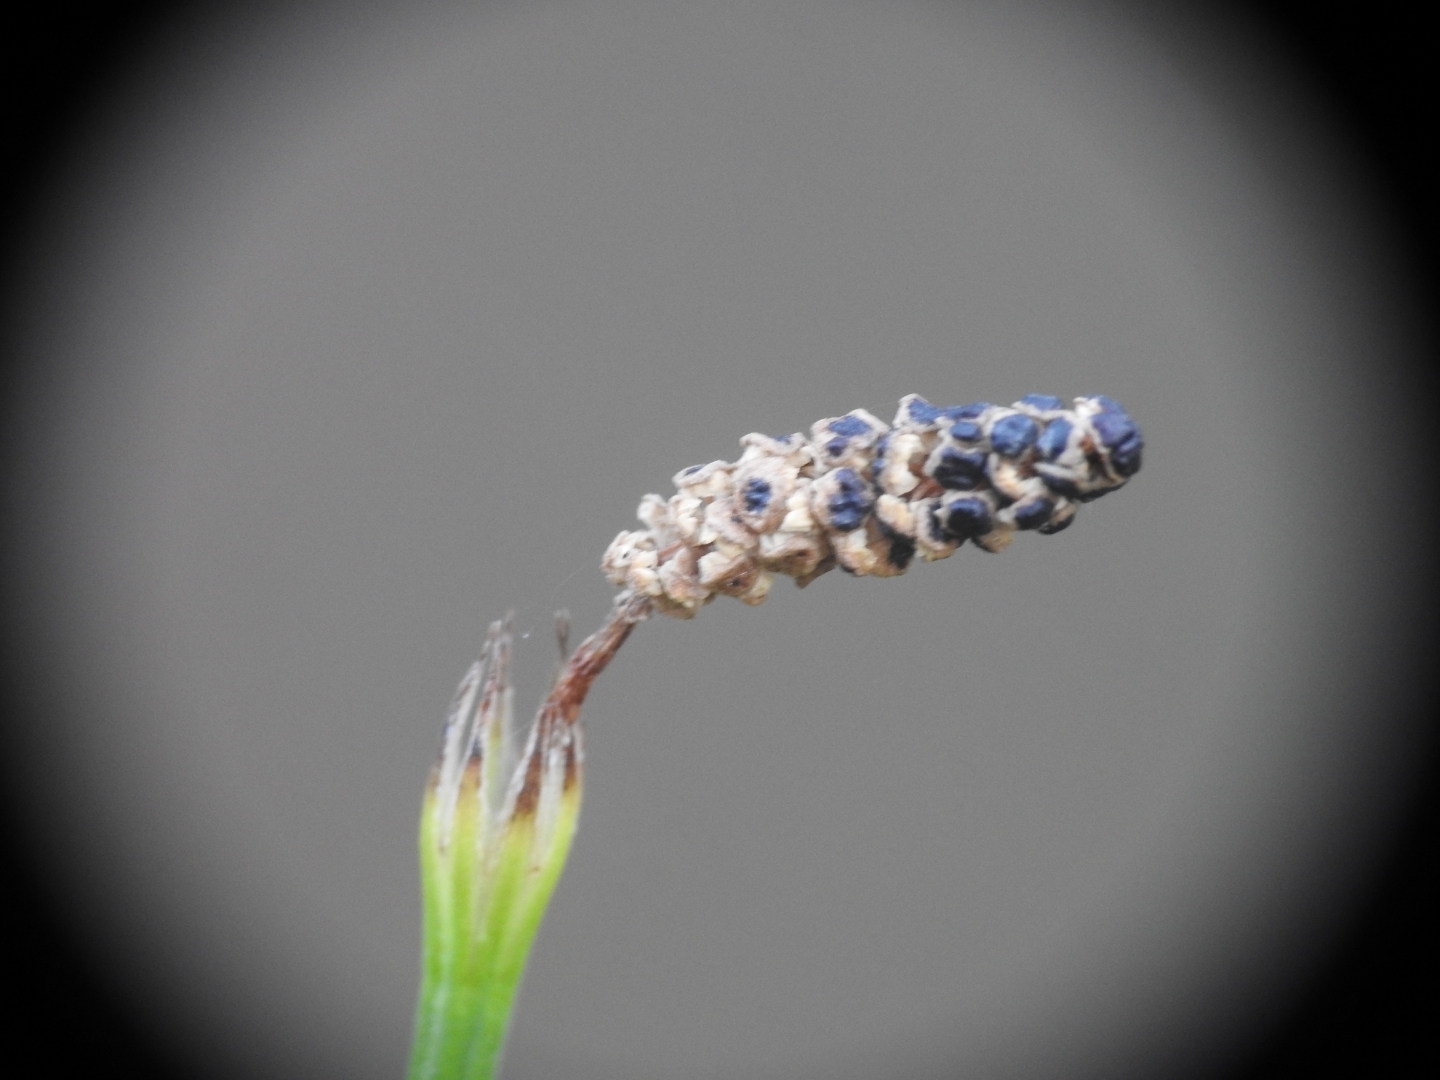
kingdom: Plantae
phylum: Tracheophyta
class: Polypodiopsida
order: Equisetales
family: Equisetaceae
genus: Equisetum
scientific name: Equisetum palustre
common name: Marsh horsetail
